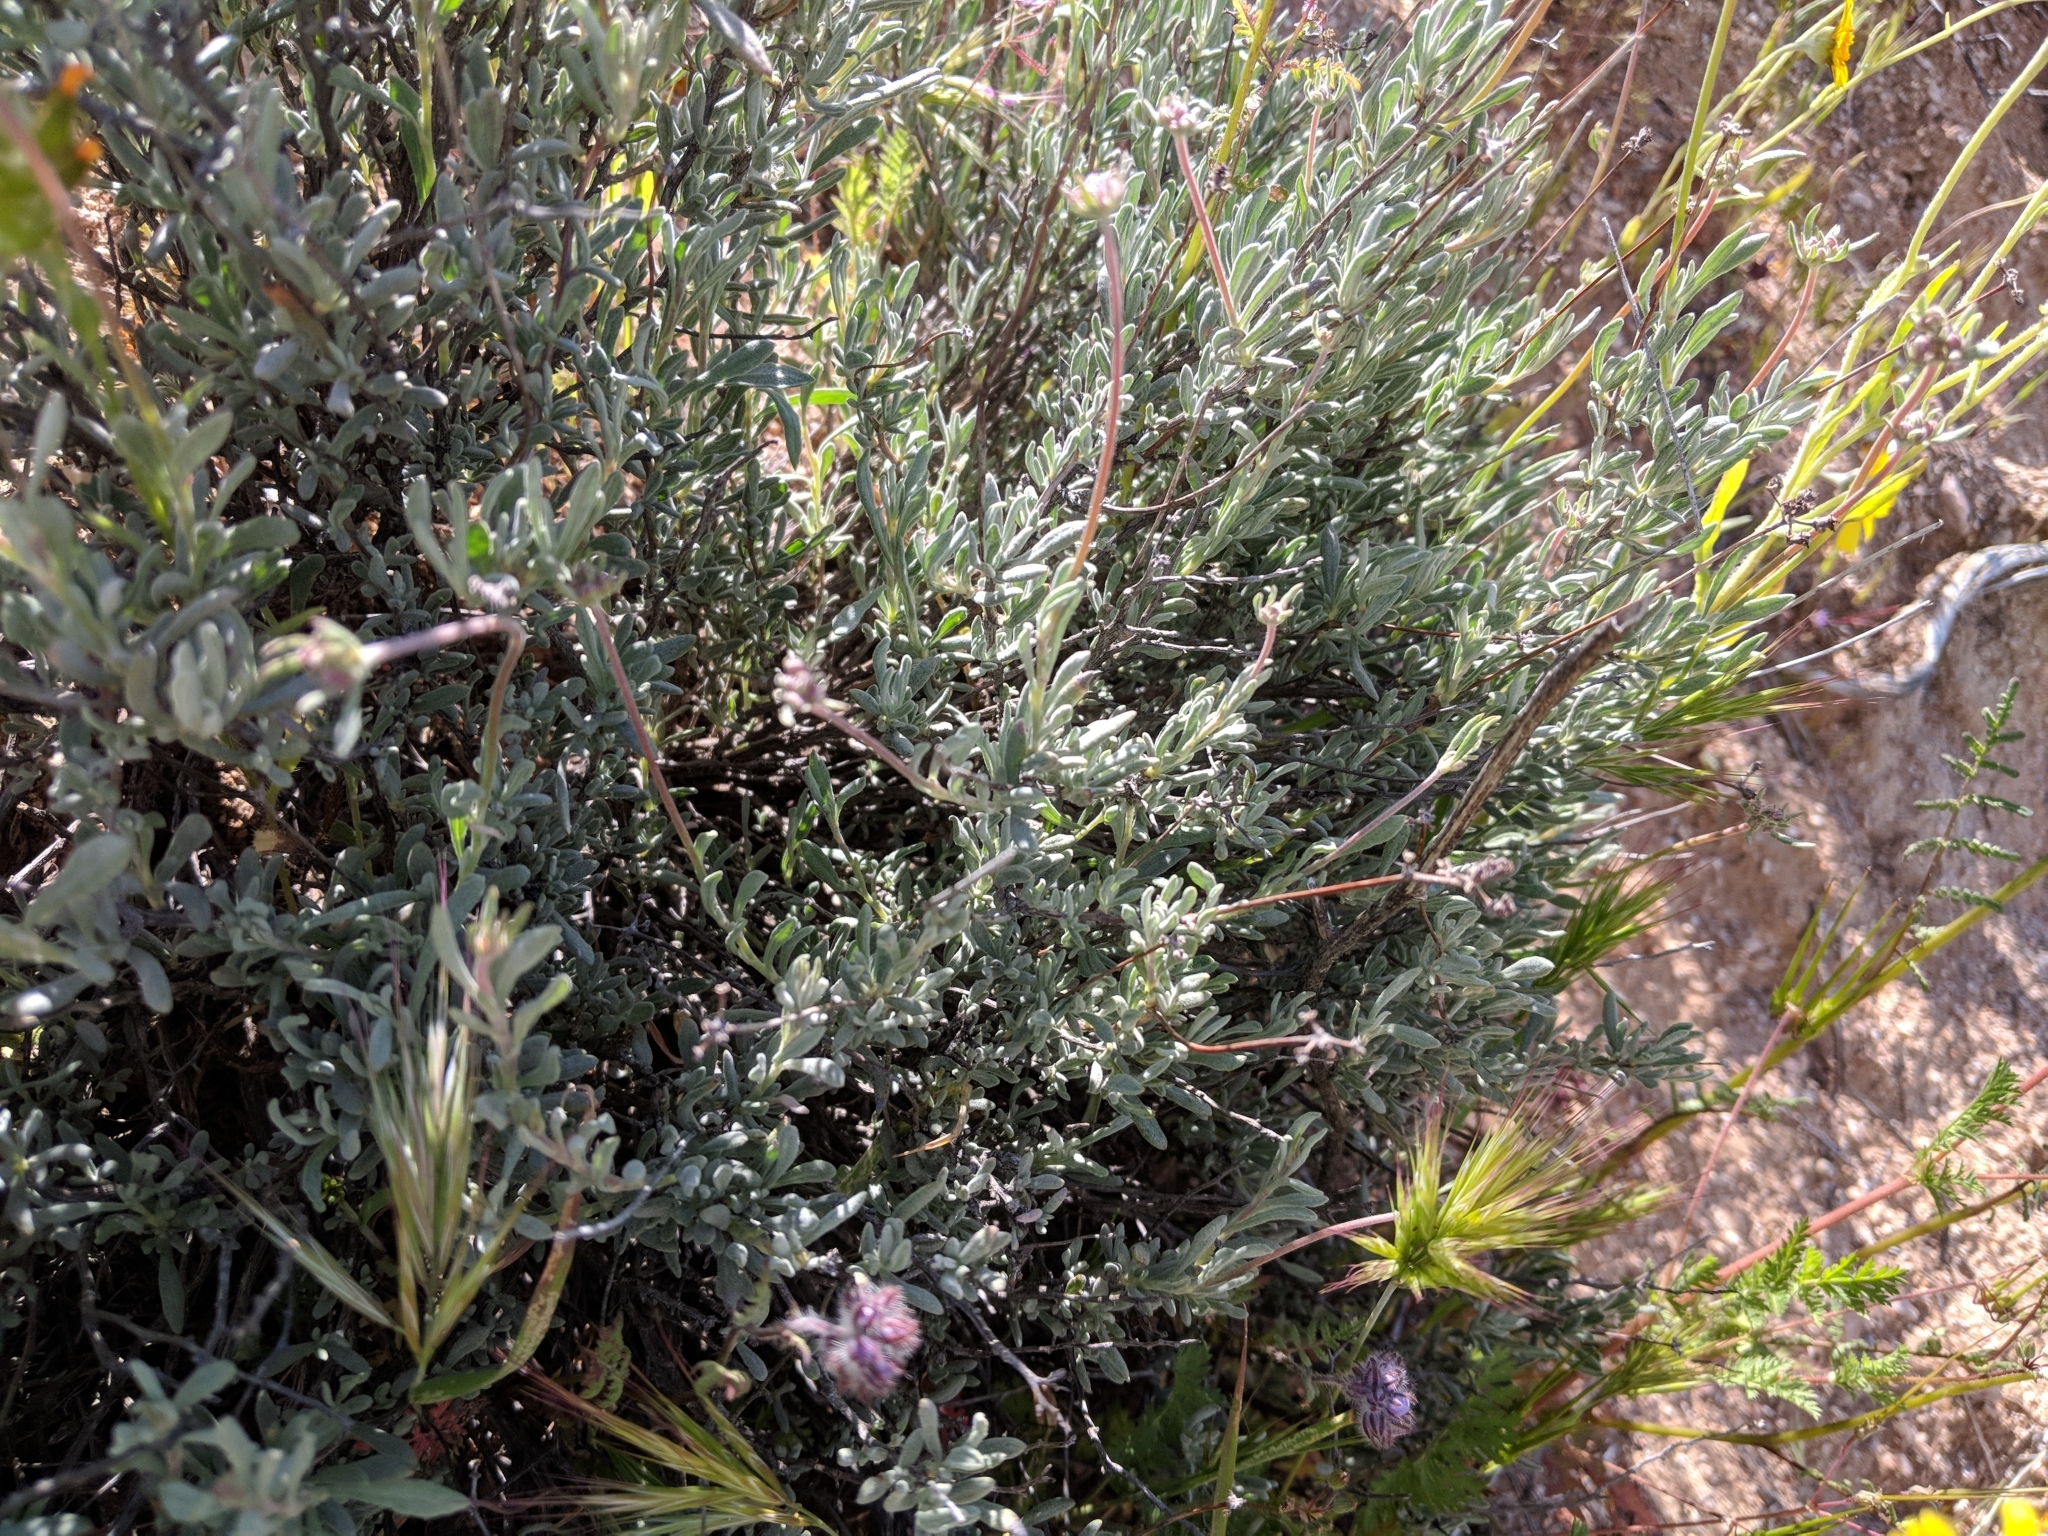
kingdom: Plantae
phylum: Tracheophyta
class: Magnoliopsida
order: Caryophyllales
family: Polygonaceae
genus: Eriogonum
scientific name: Eriogonum fasciculatum
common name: California wild buckwheat
